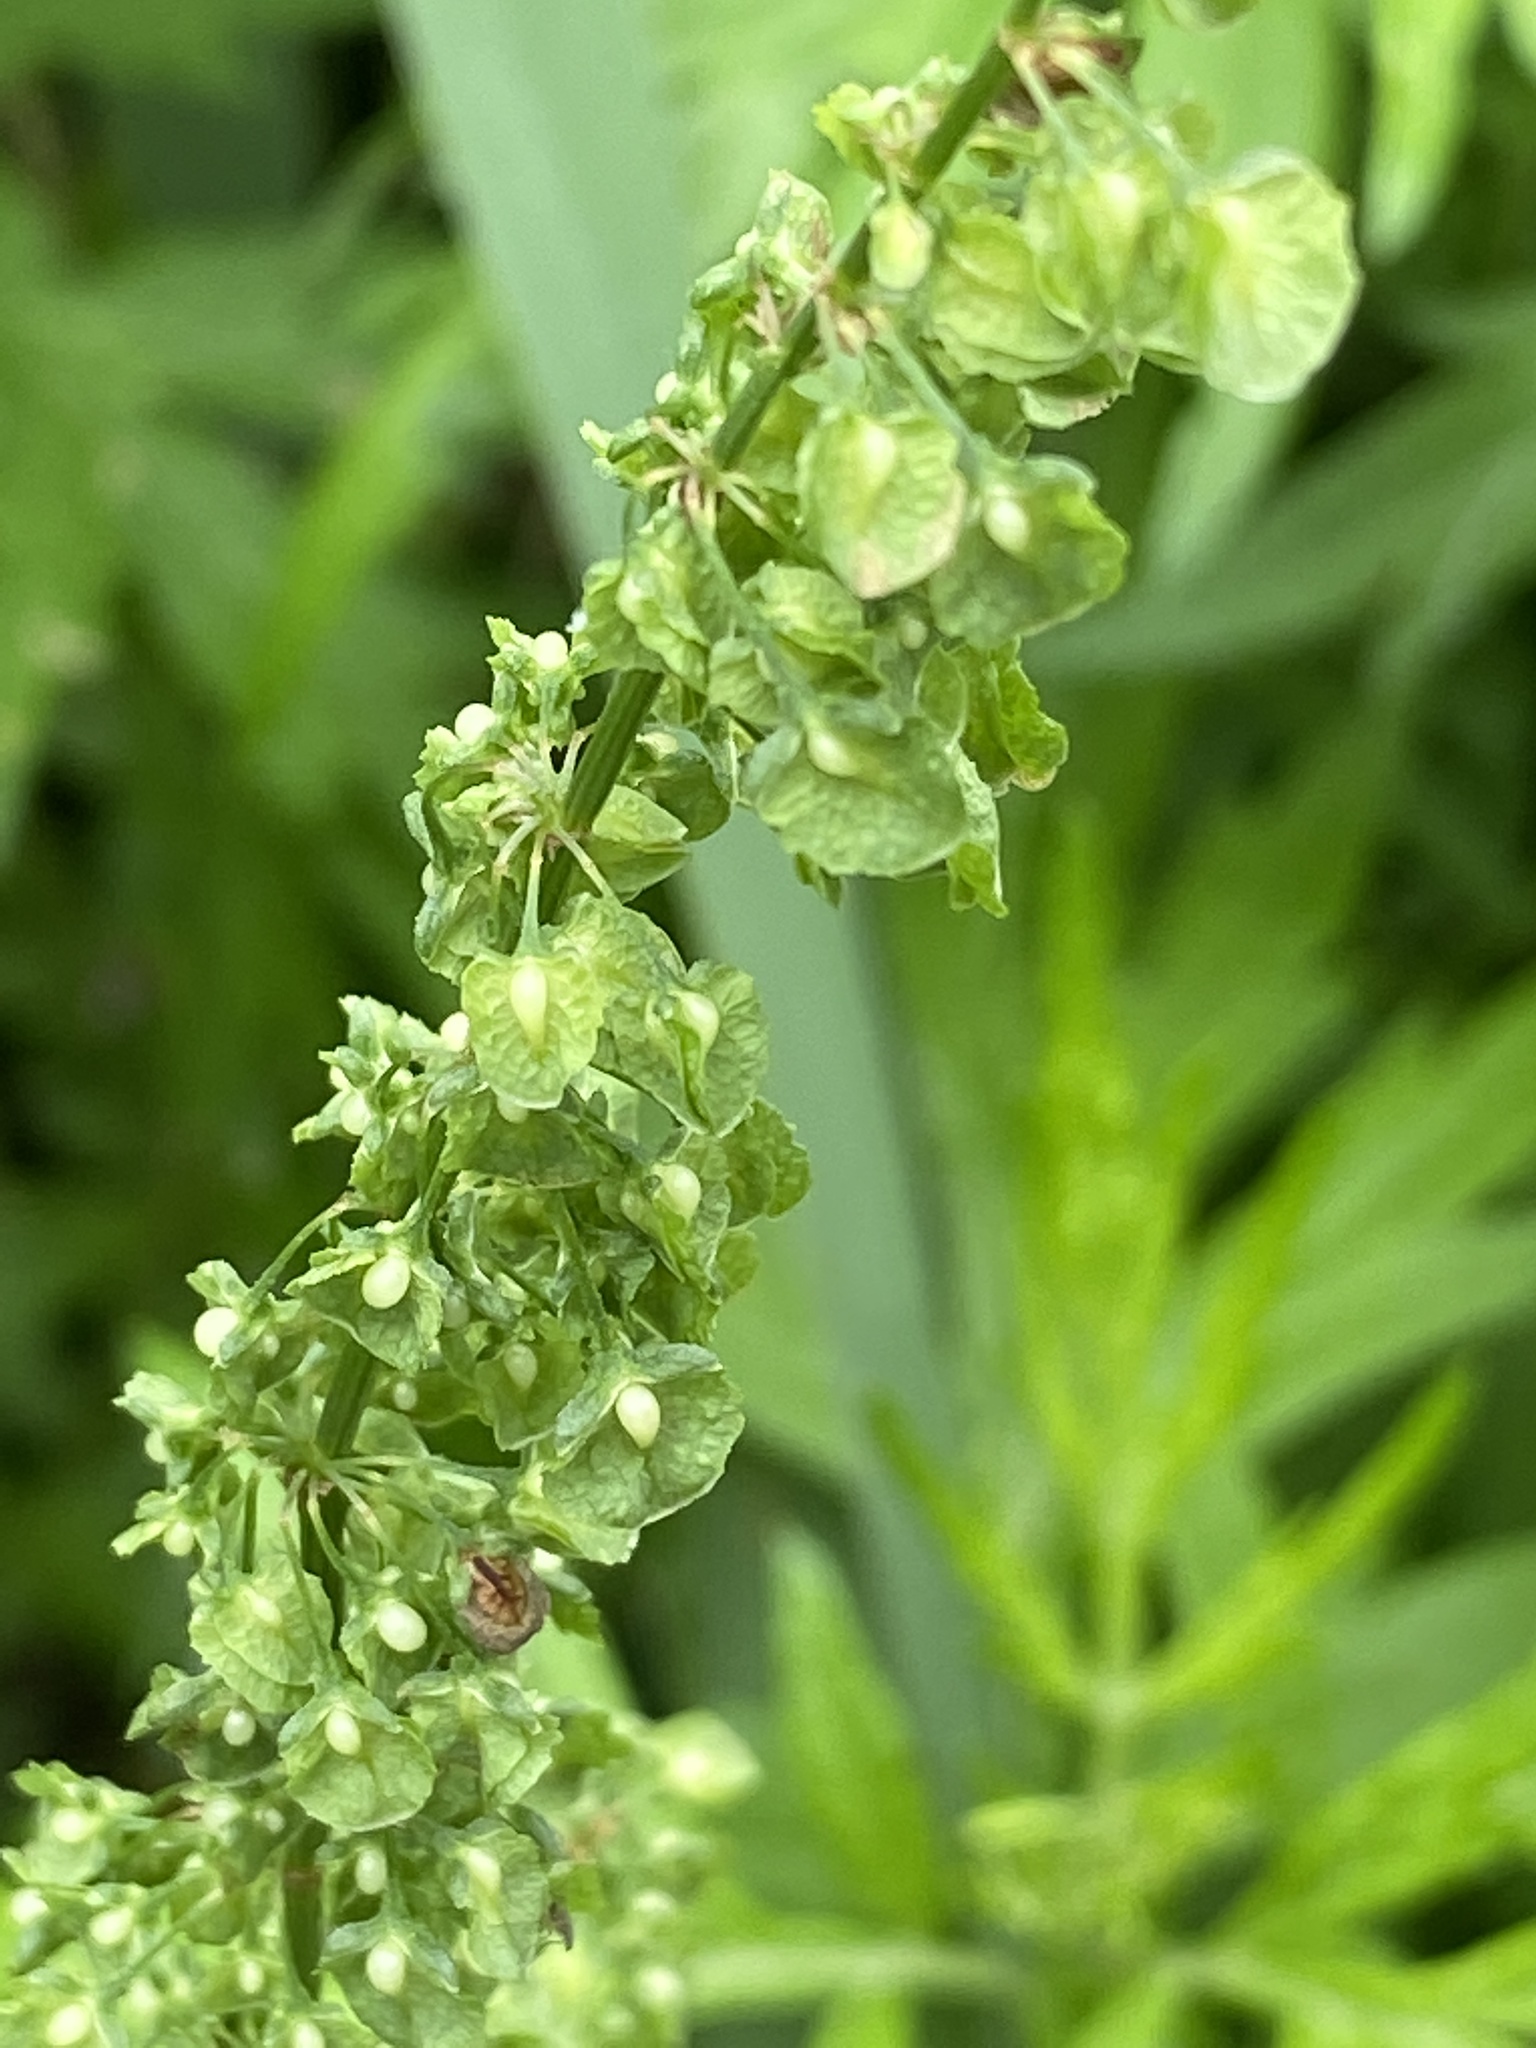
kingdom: Plantae
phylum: Tracheophyta
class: Magnoliopsida
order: Caryophyllales
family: Polygonaceae
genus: Rumex
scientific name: Rumex crispus
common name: Curled dock
